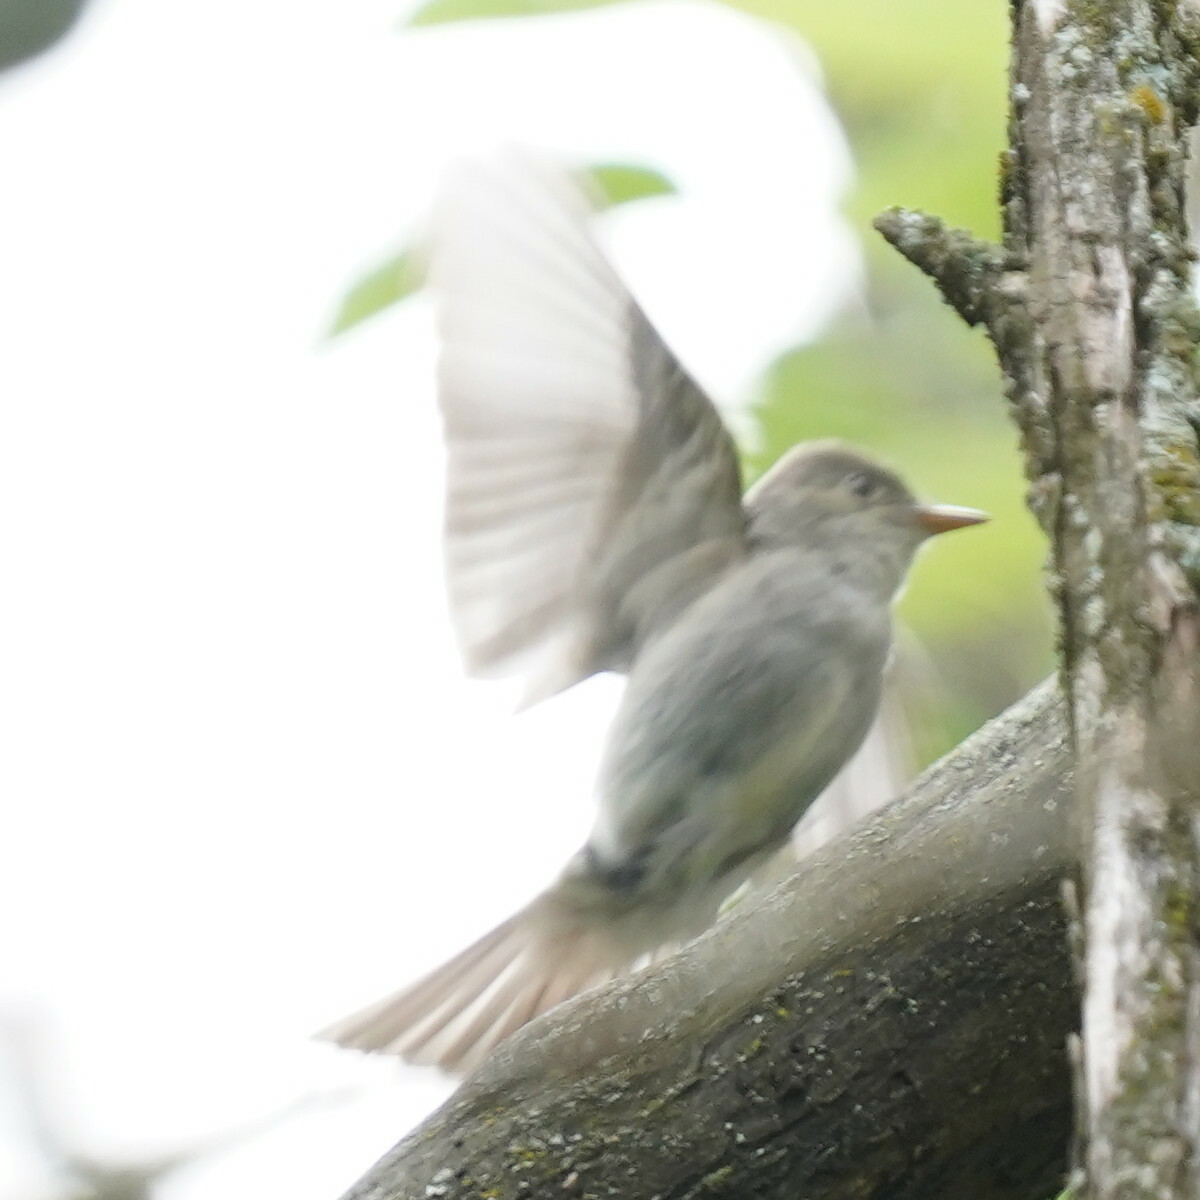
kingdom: Animalia
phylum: Chordata
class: Aves
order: Passeriformes
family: Tyrannidae
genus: Contopus
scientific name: Contopus virens
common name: Eastern wood-pewee
